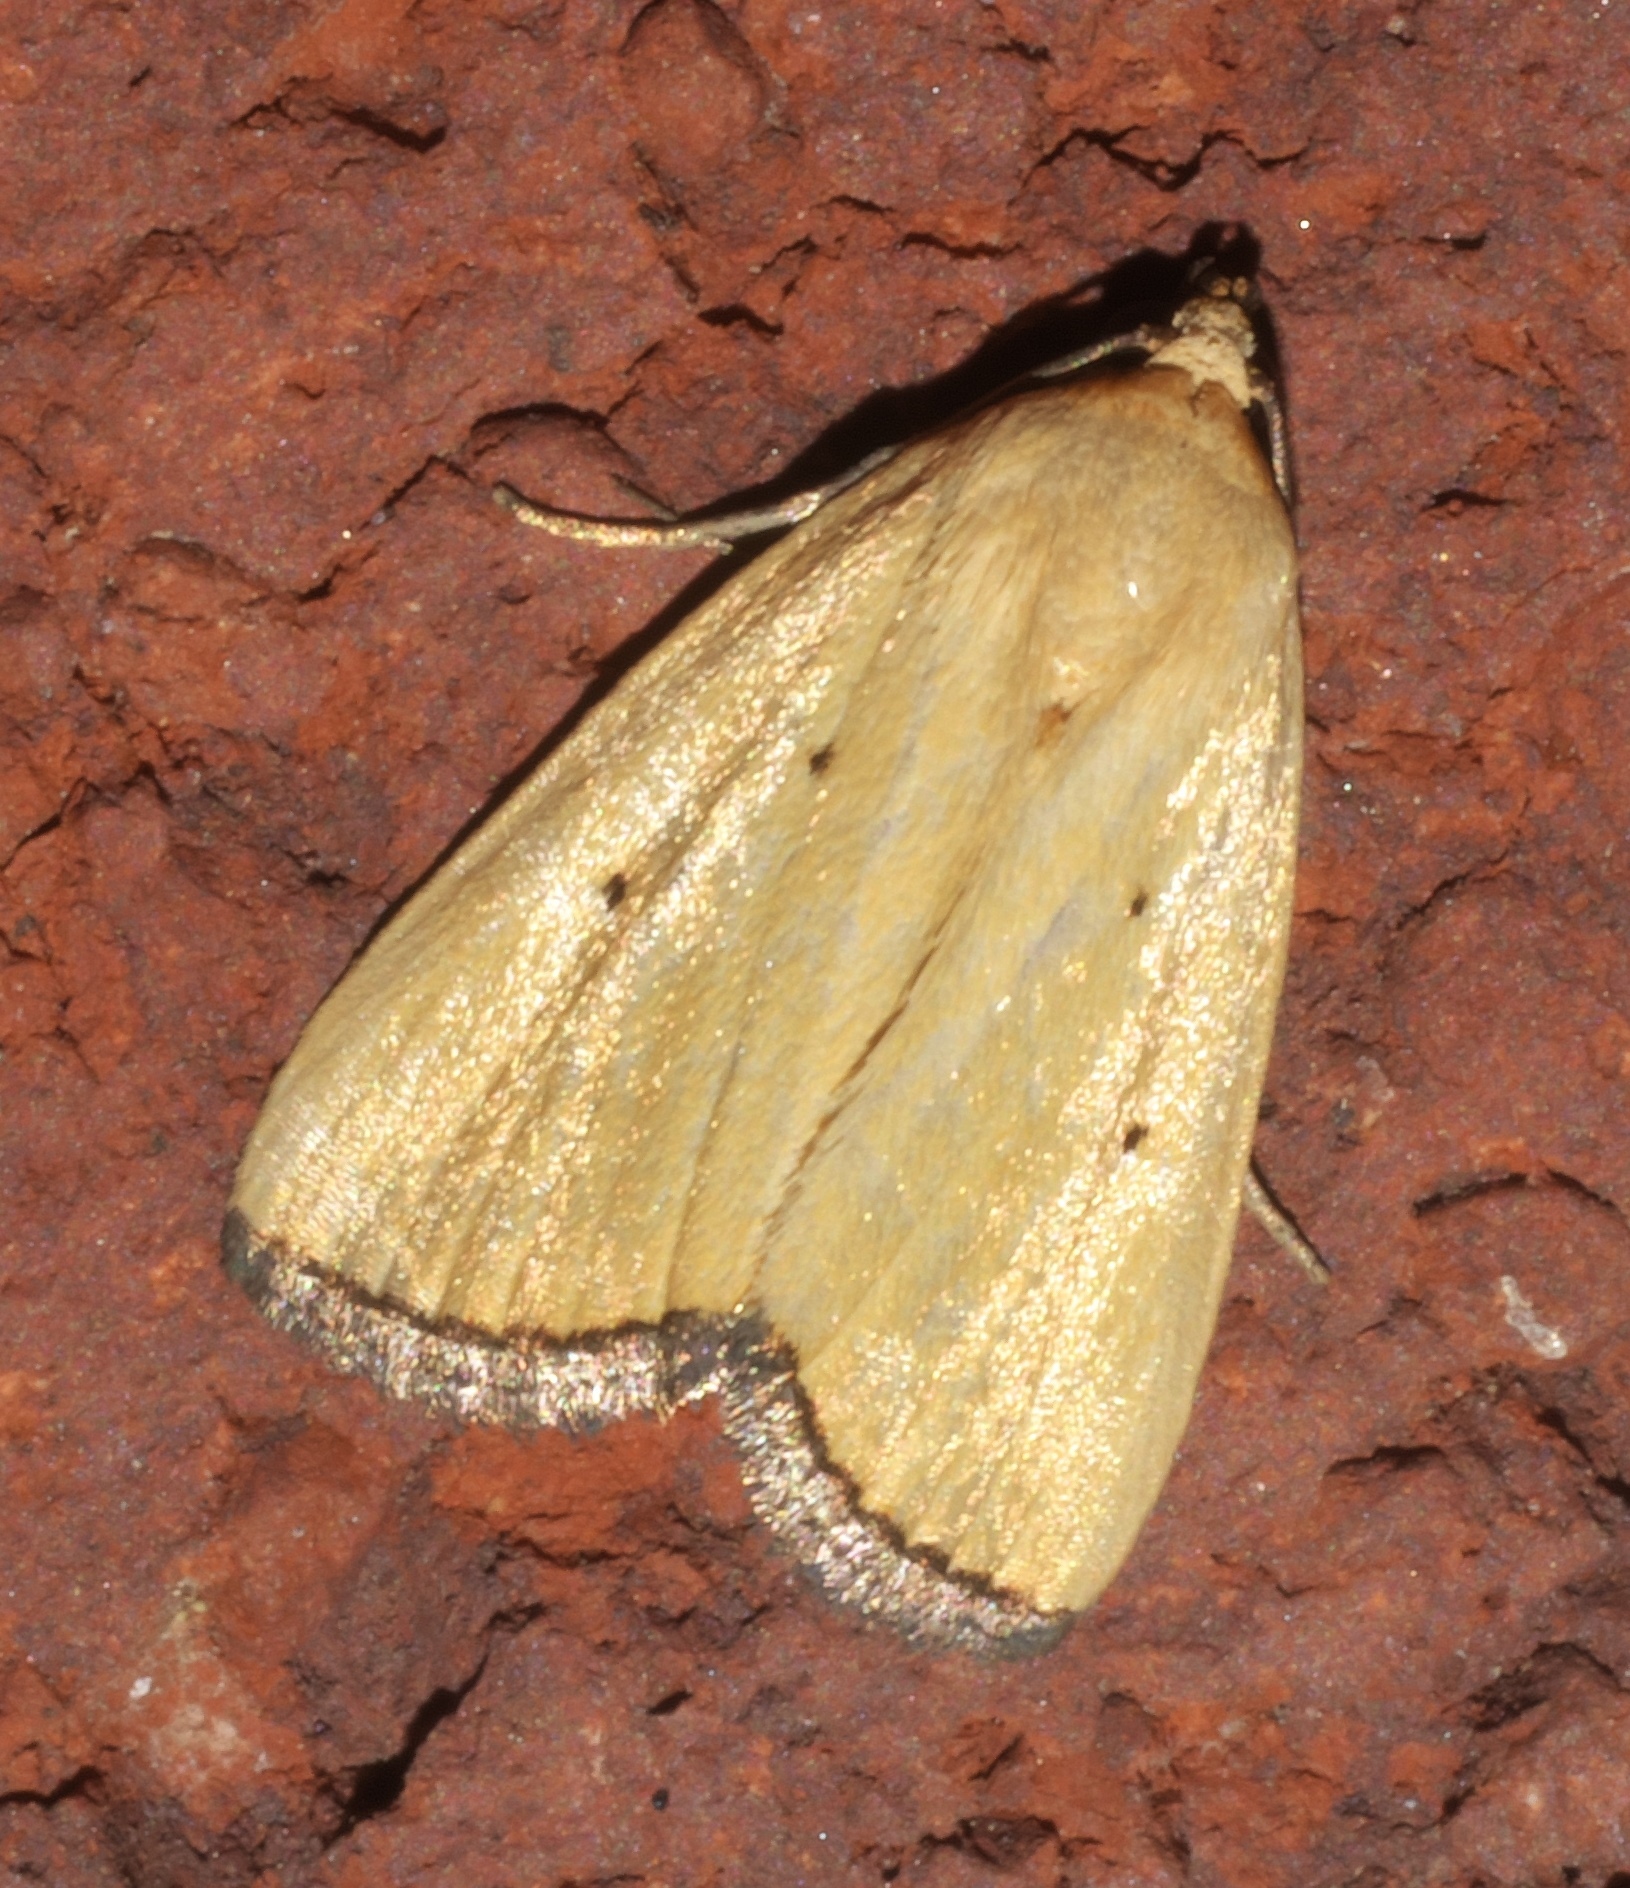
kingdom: Animalia
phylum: Arthropoda
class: Insecta
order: Lepidoptera
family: Noctuidae
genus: Marimatha
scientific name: Marimatha nigrofimbria
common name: Black-bordered lemon moth
